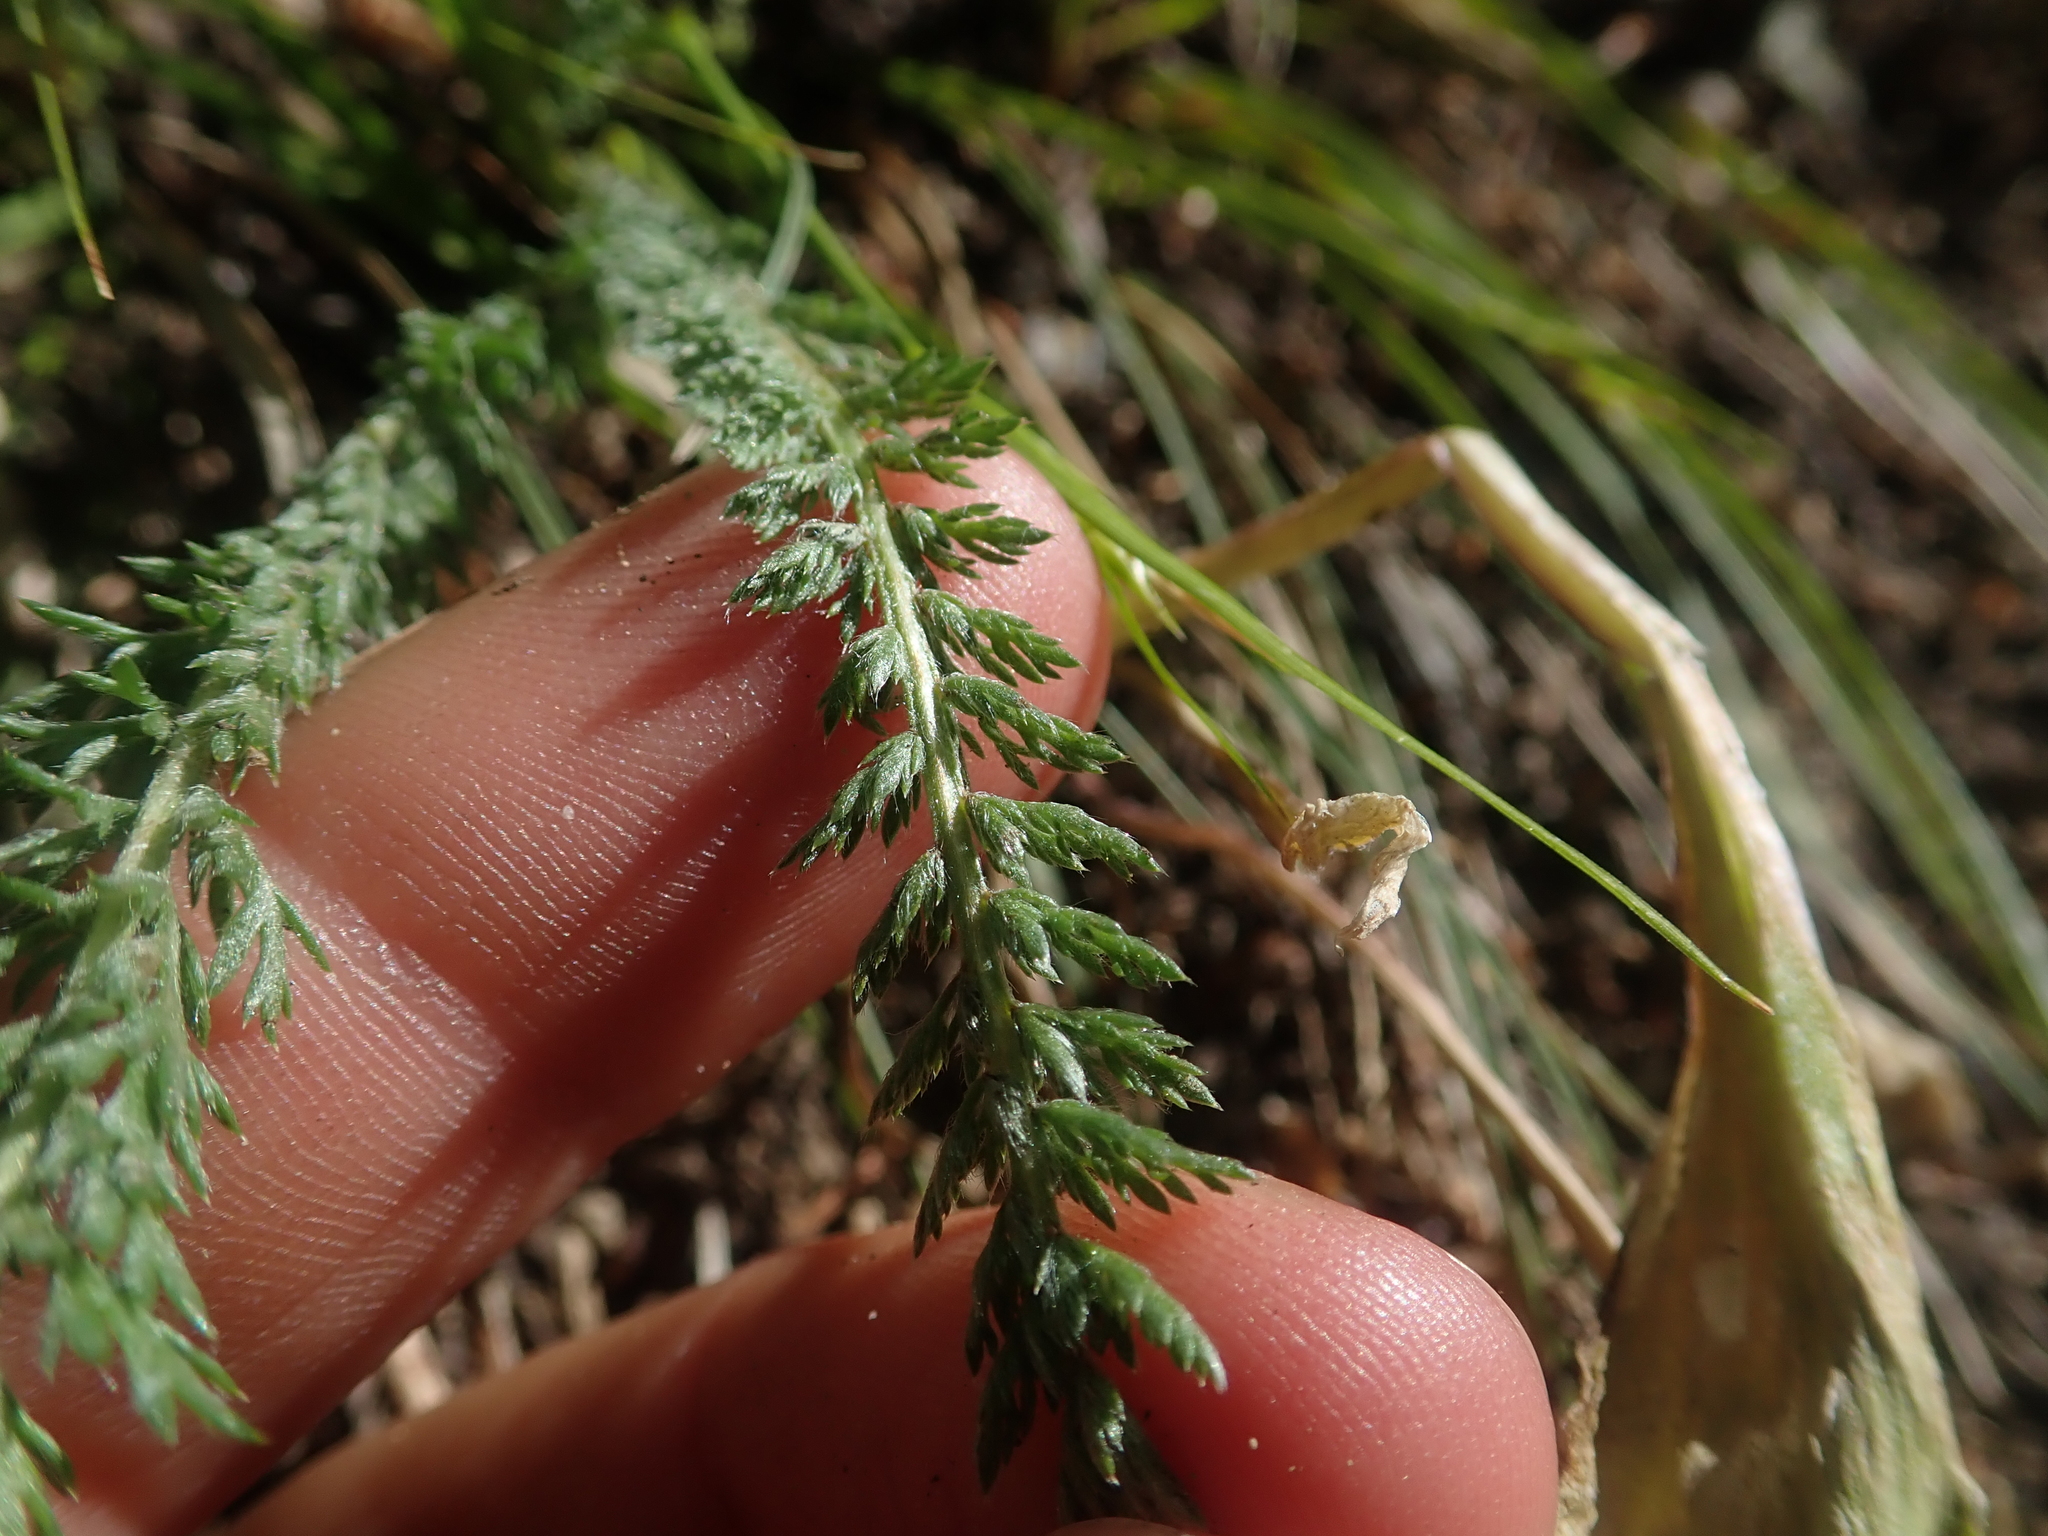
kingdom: Plantae
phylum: Tracheophyta
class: Magnoliopsida
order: Asterales
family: Asteraceae
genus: Achillea
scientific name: Achillea millefolium
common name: Yarrow
